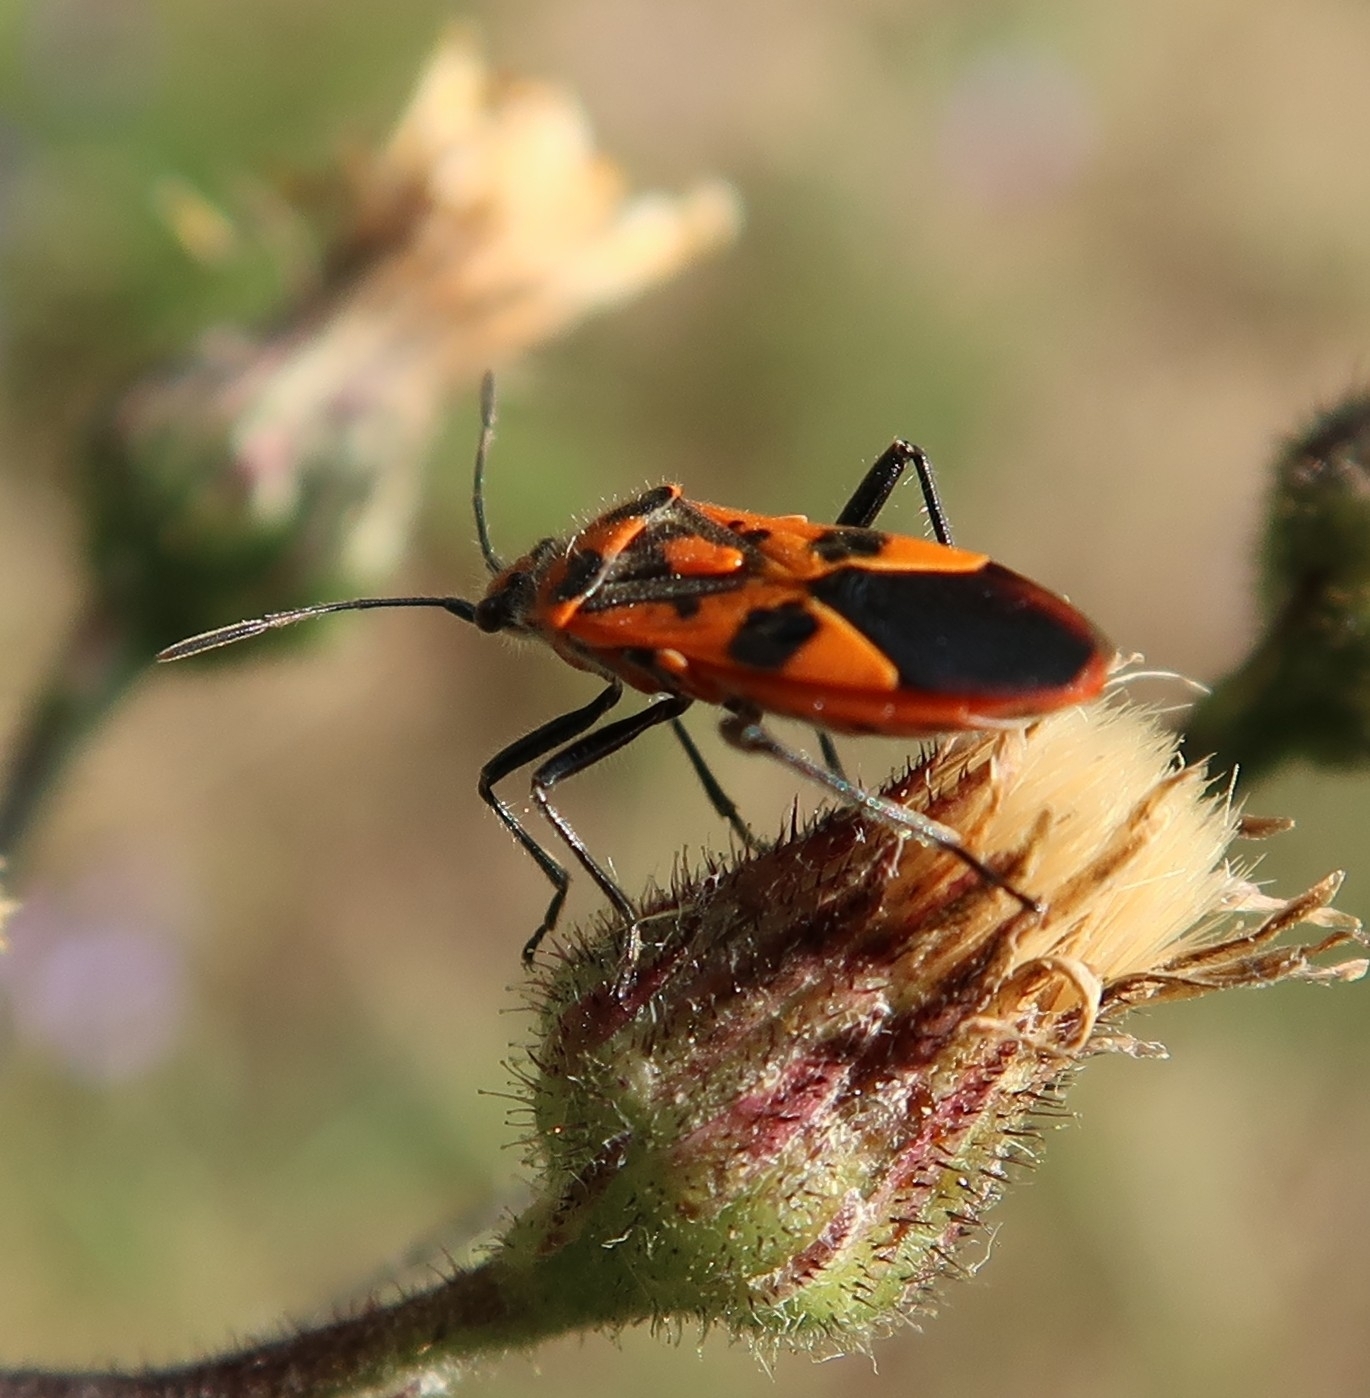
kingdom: Animalia
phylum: Arthropoda
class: Insecta
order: Hemiptera
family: Rhopalidae
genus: Corizus
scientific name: Corizus hyoscyami
